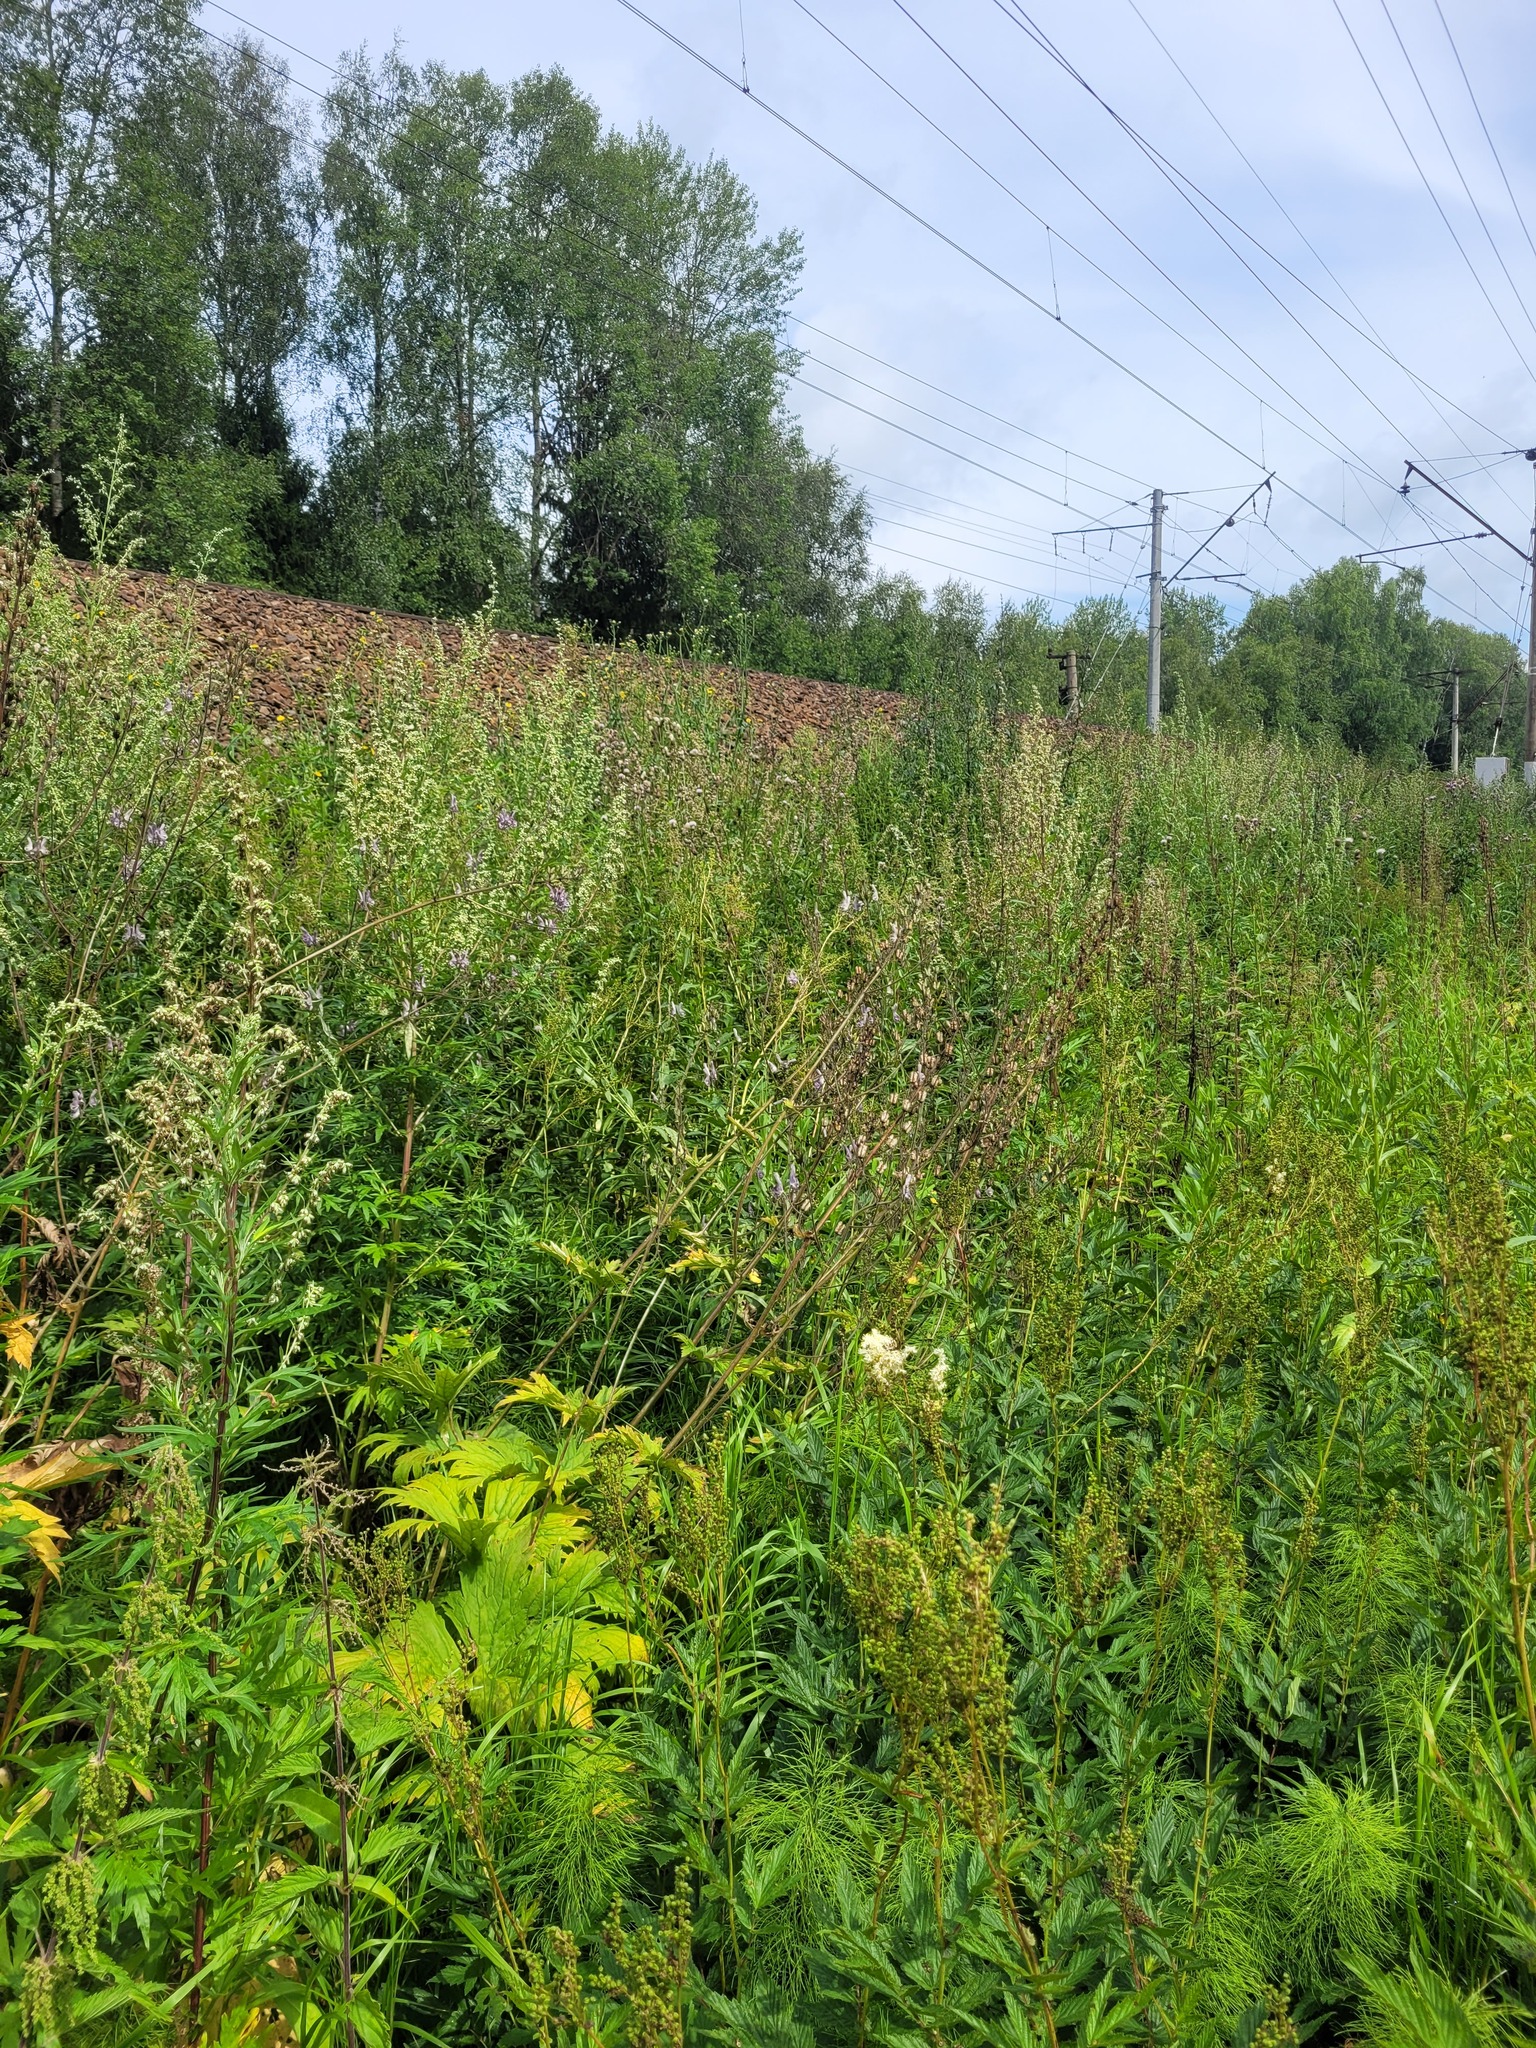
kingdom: Plantae
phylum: Tracheophyta
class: Magnoliopsida
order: Ranunculales
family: Ranunculaceae
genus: Aconitum
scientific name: Aconitum septentrionale
